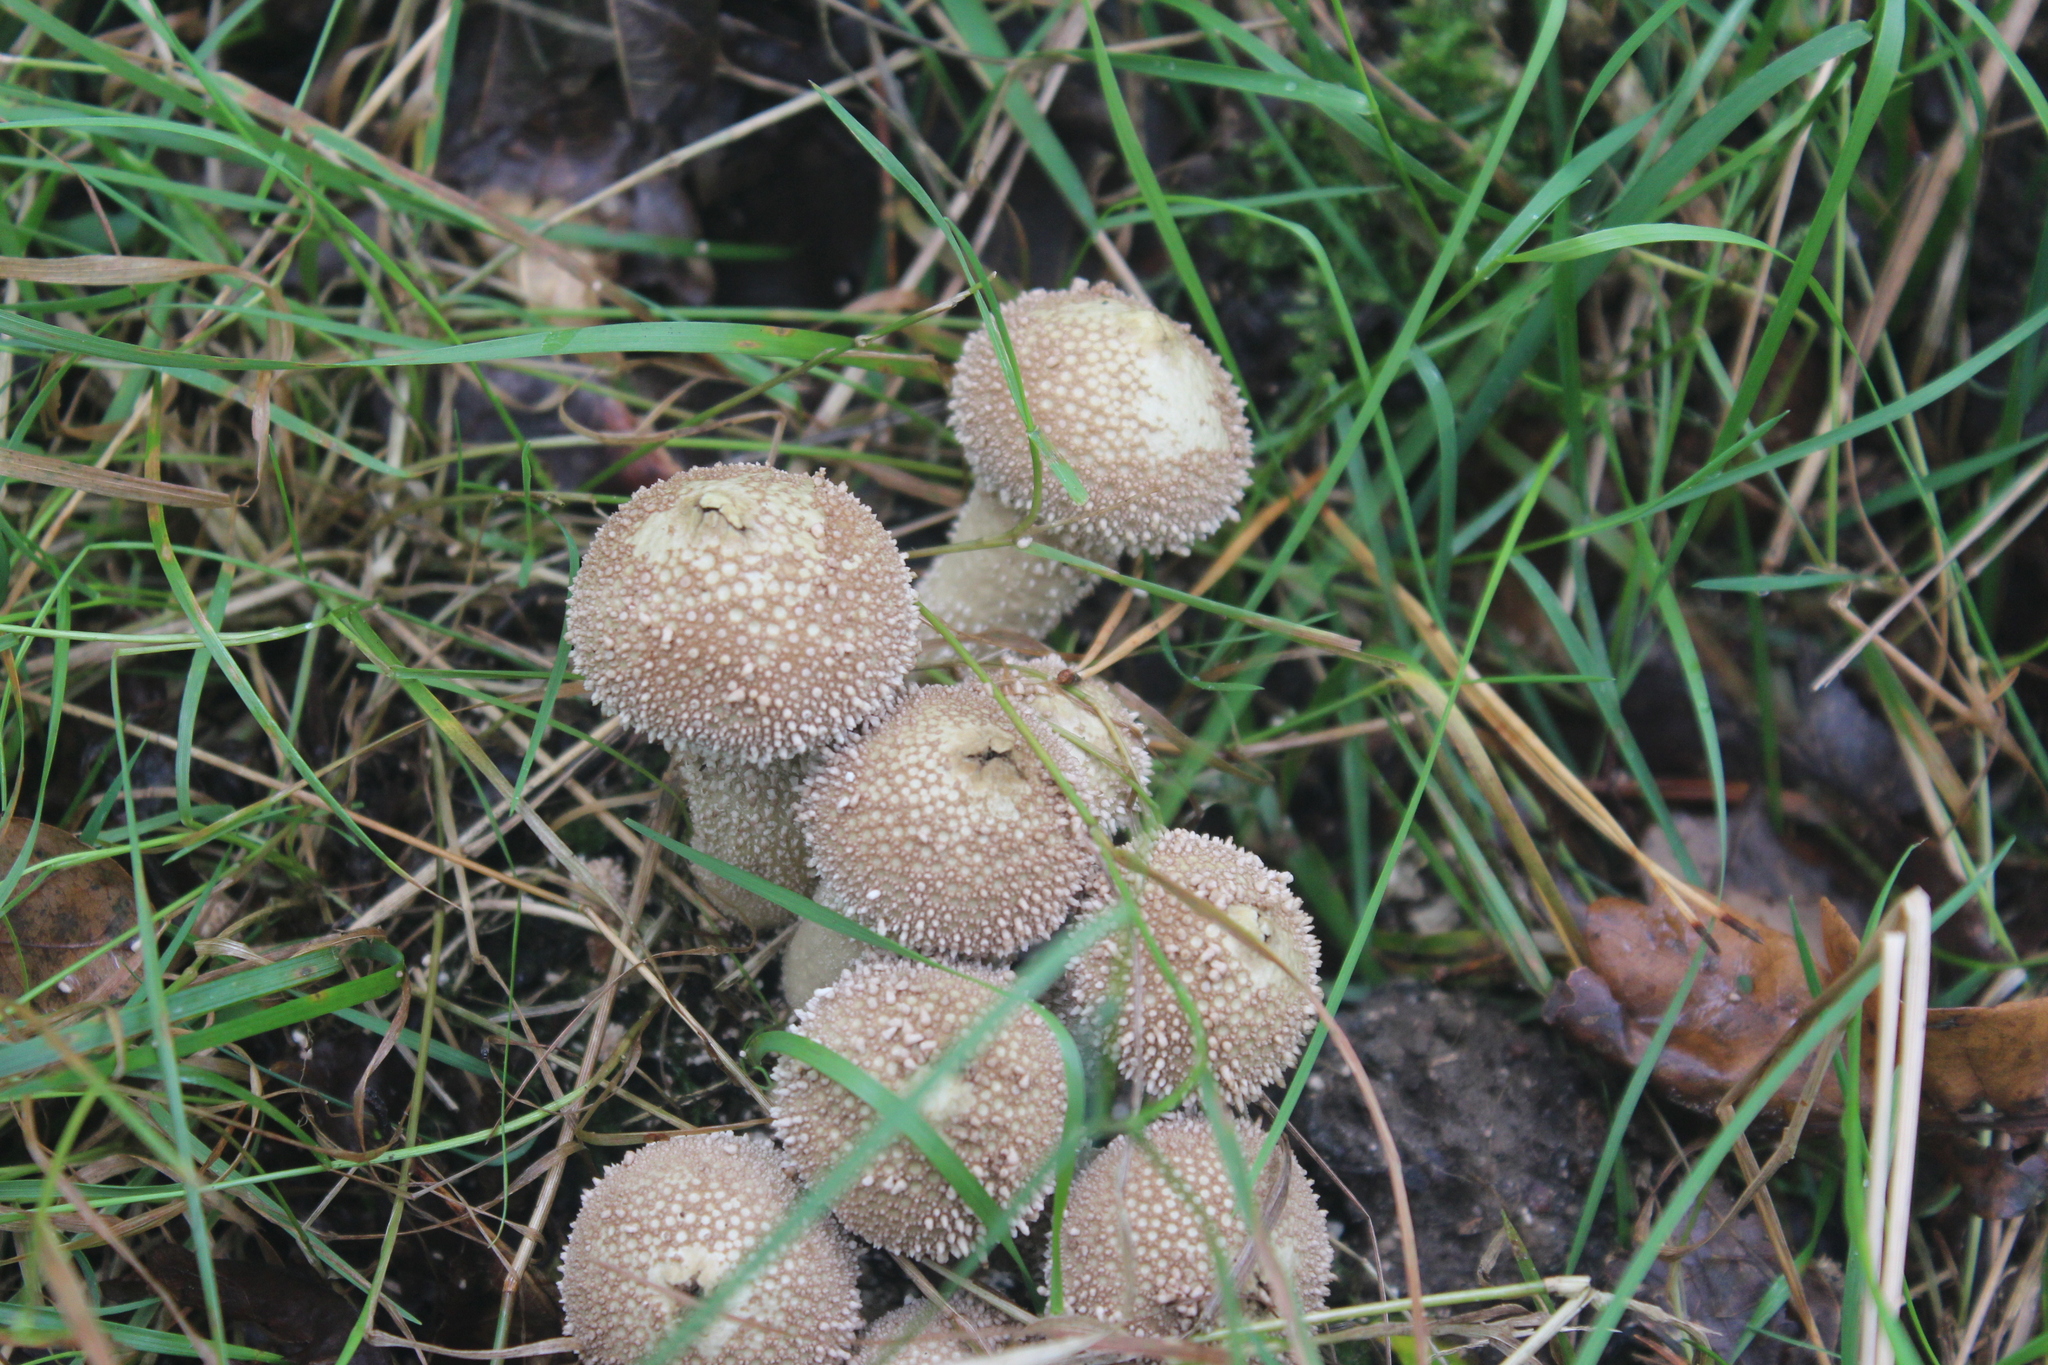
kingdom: Fungi
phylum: Basidiomycota
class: Agaricomycetes
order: Agaricales
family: Lycoperdaceae
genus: Lycoperdon
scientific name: Lycoperdon perlatum
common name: Common puffball
